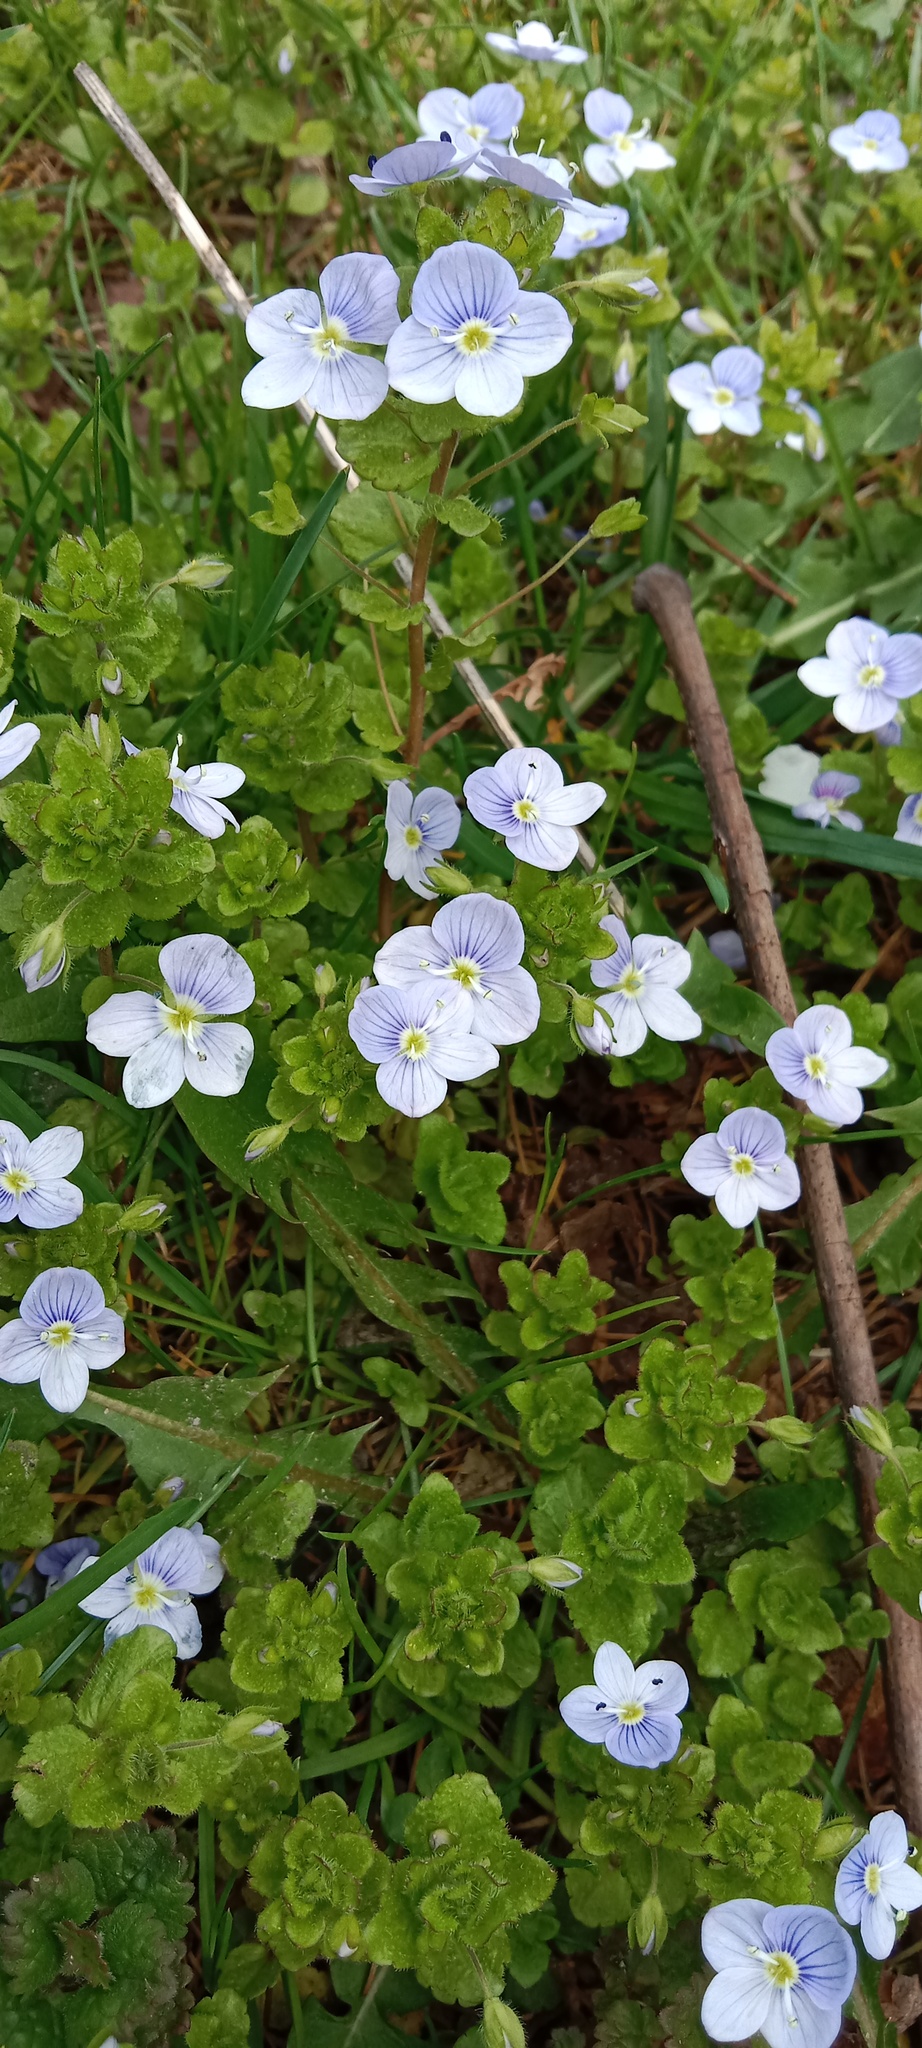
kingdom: Plantae
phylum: Tracheophyta
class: Magnoliopsida
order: Lamiales
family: Plantaginaceae
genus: Veronica
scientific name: Veronica filiformis
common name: Slender speedwell
